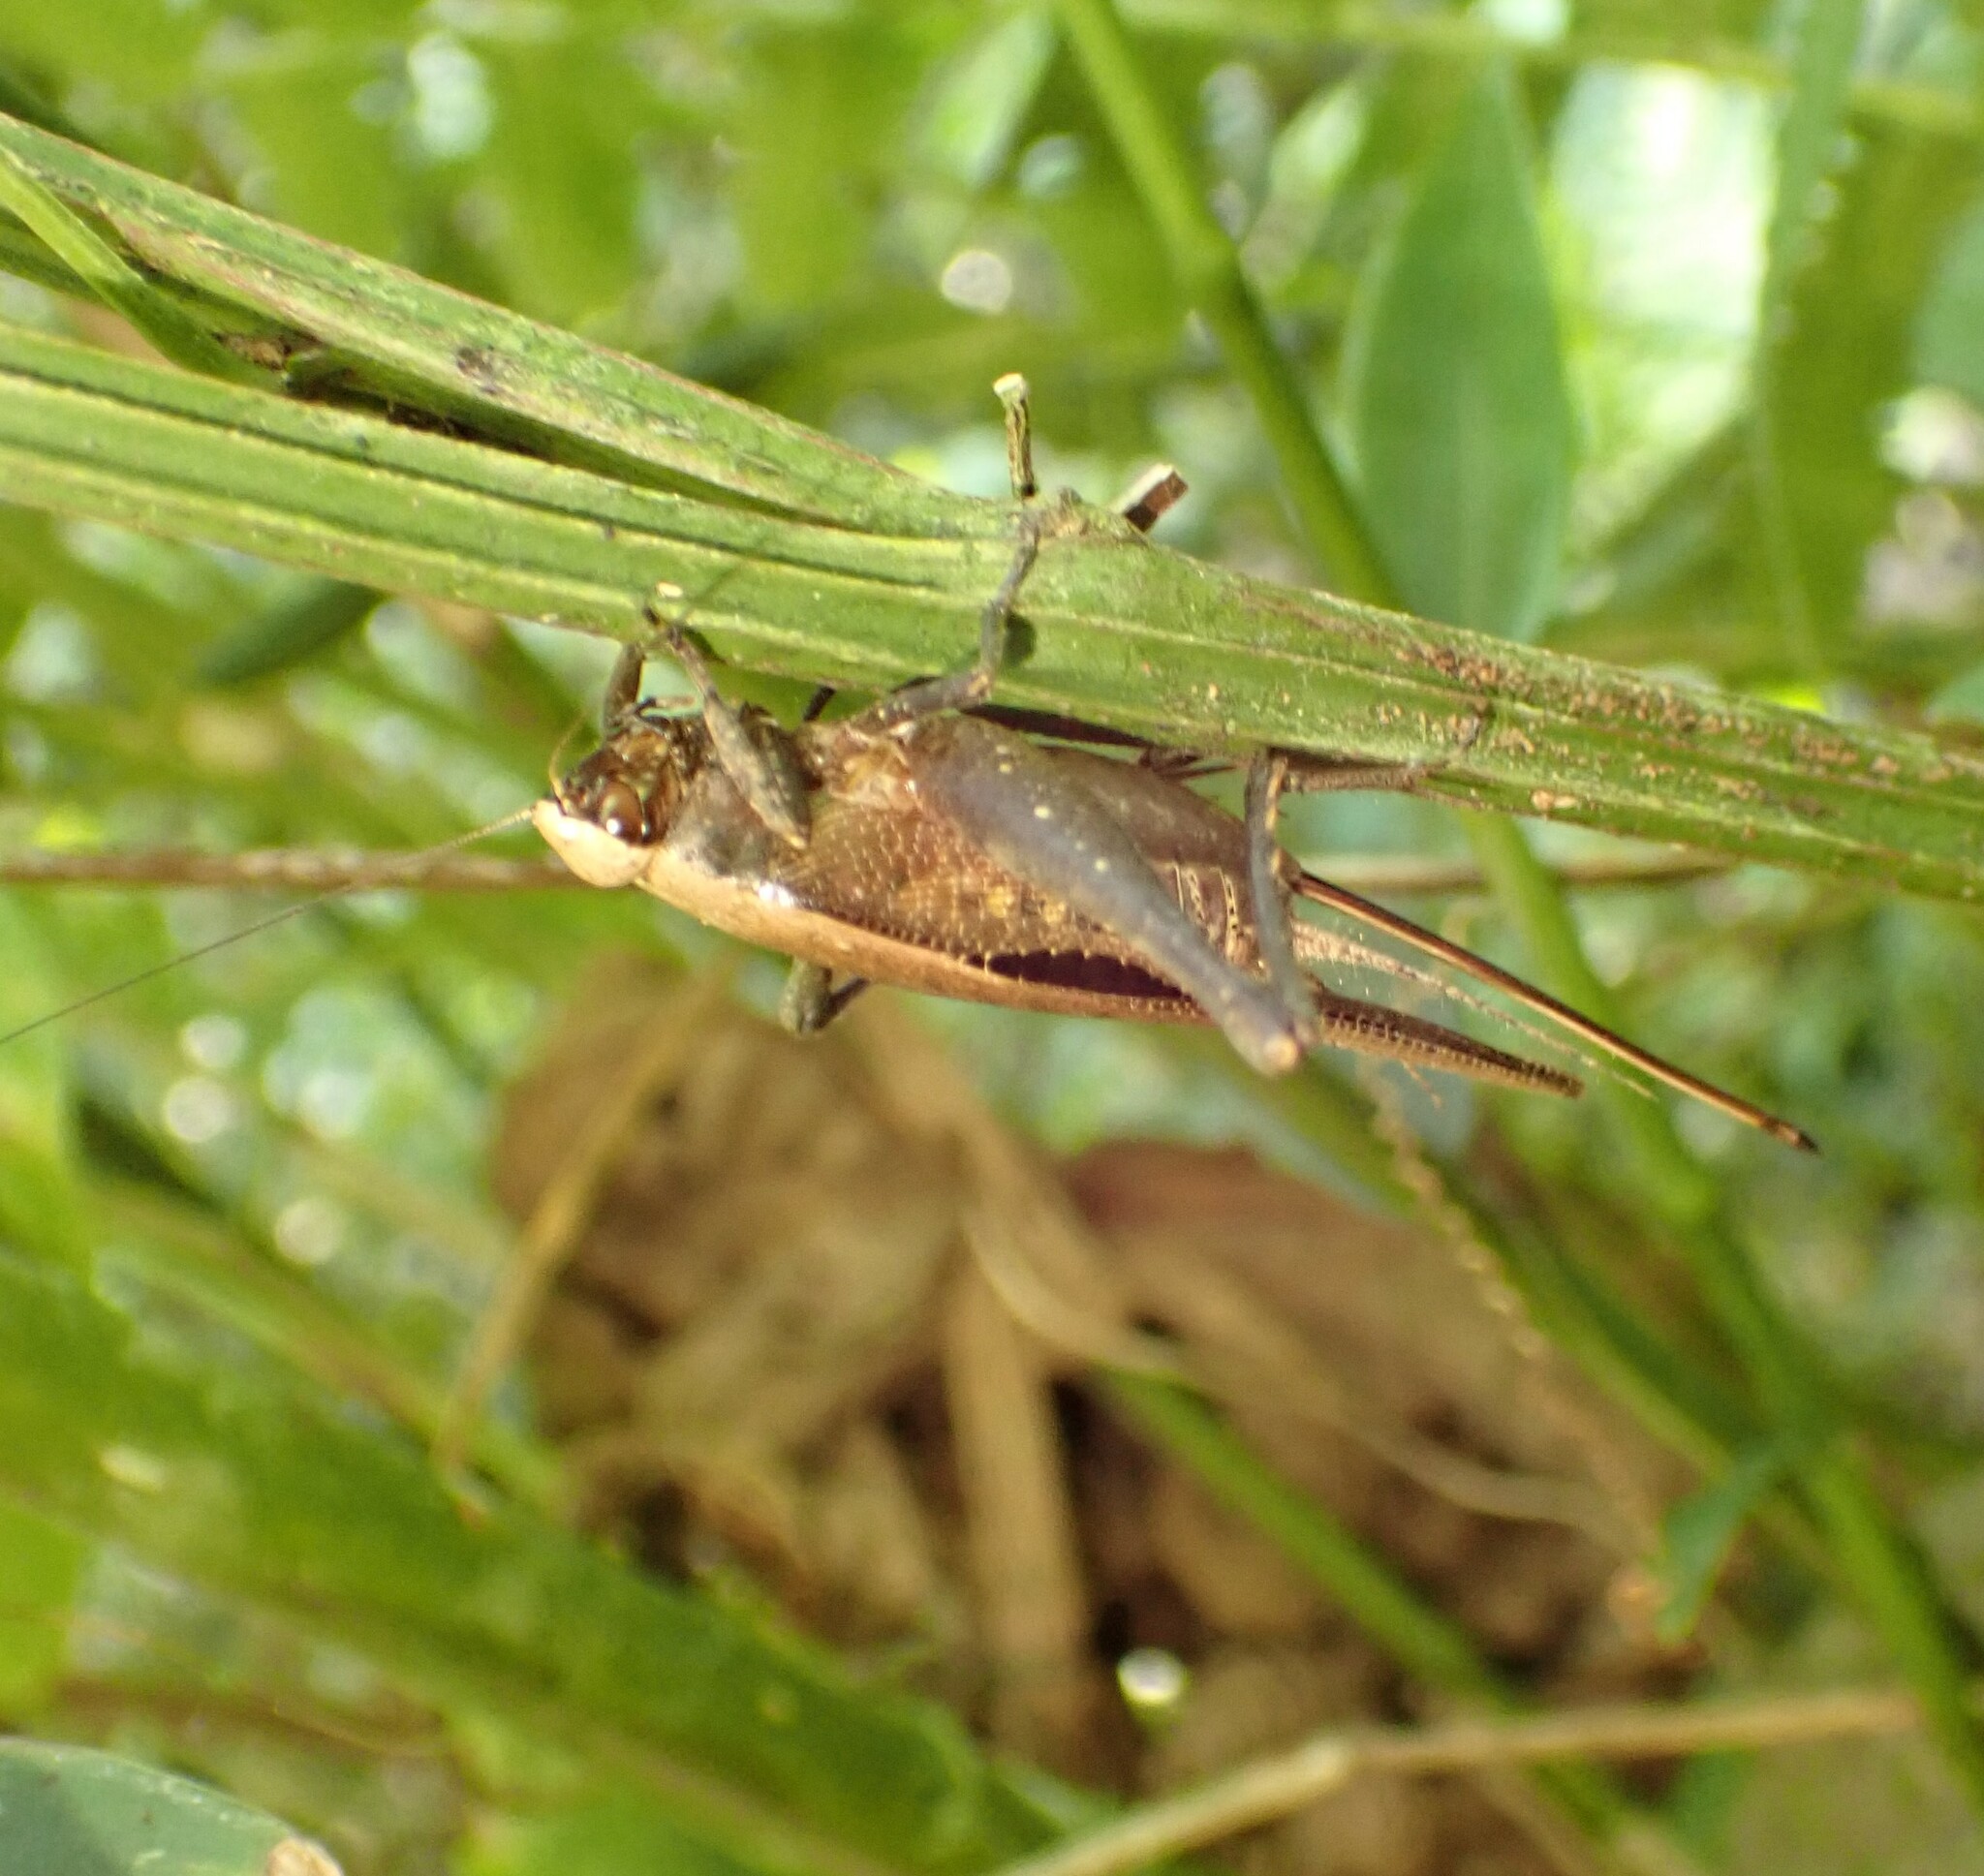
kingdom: Animalia
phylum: Arthropoda
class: Insecta
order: Orthoptera
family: Gryllidae
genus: Eneoptera
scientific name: Eneoptera surinamensis
